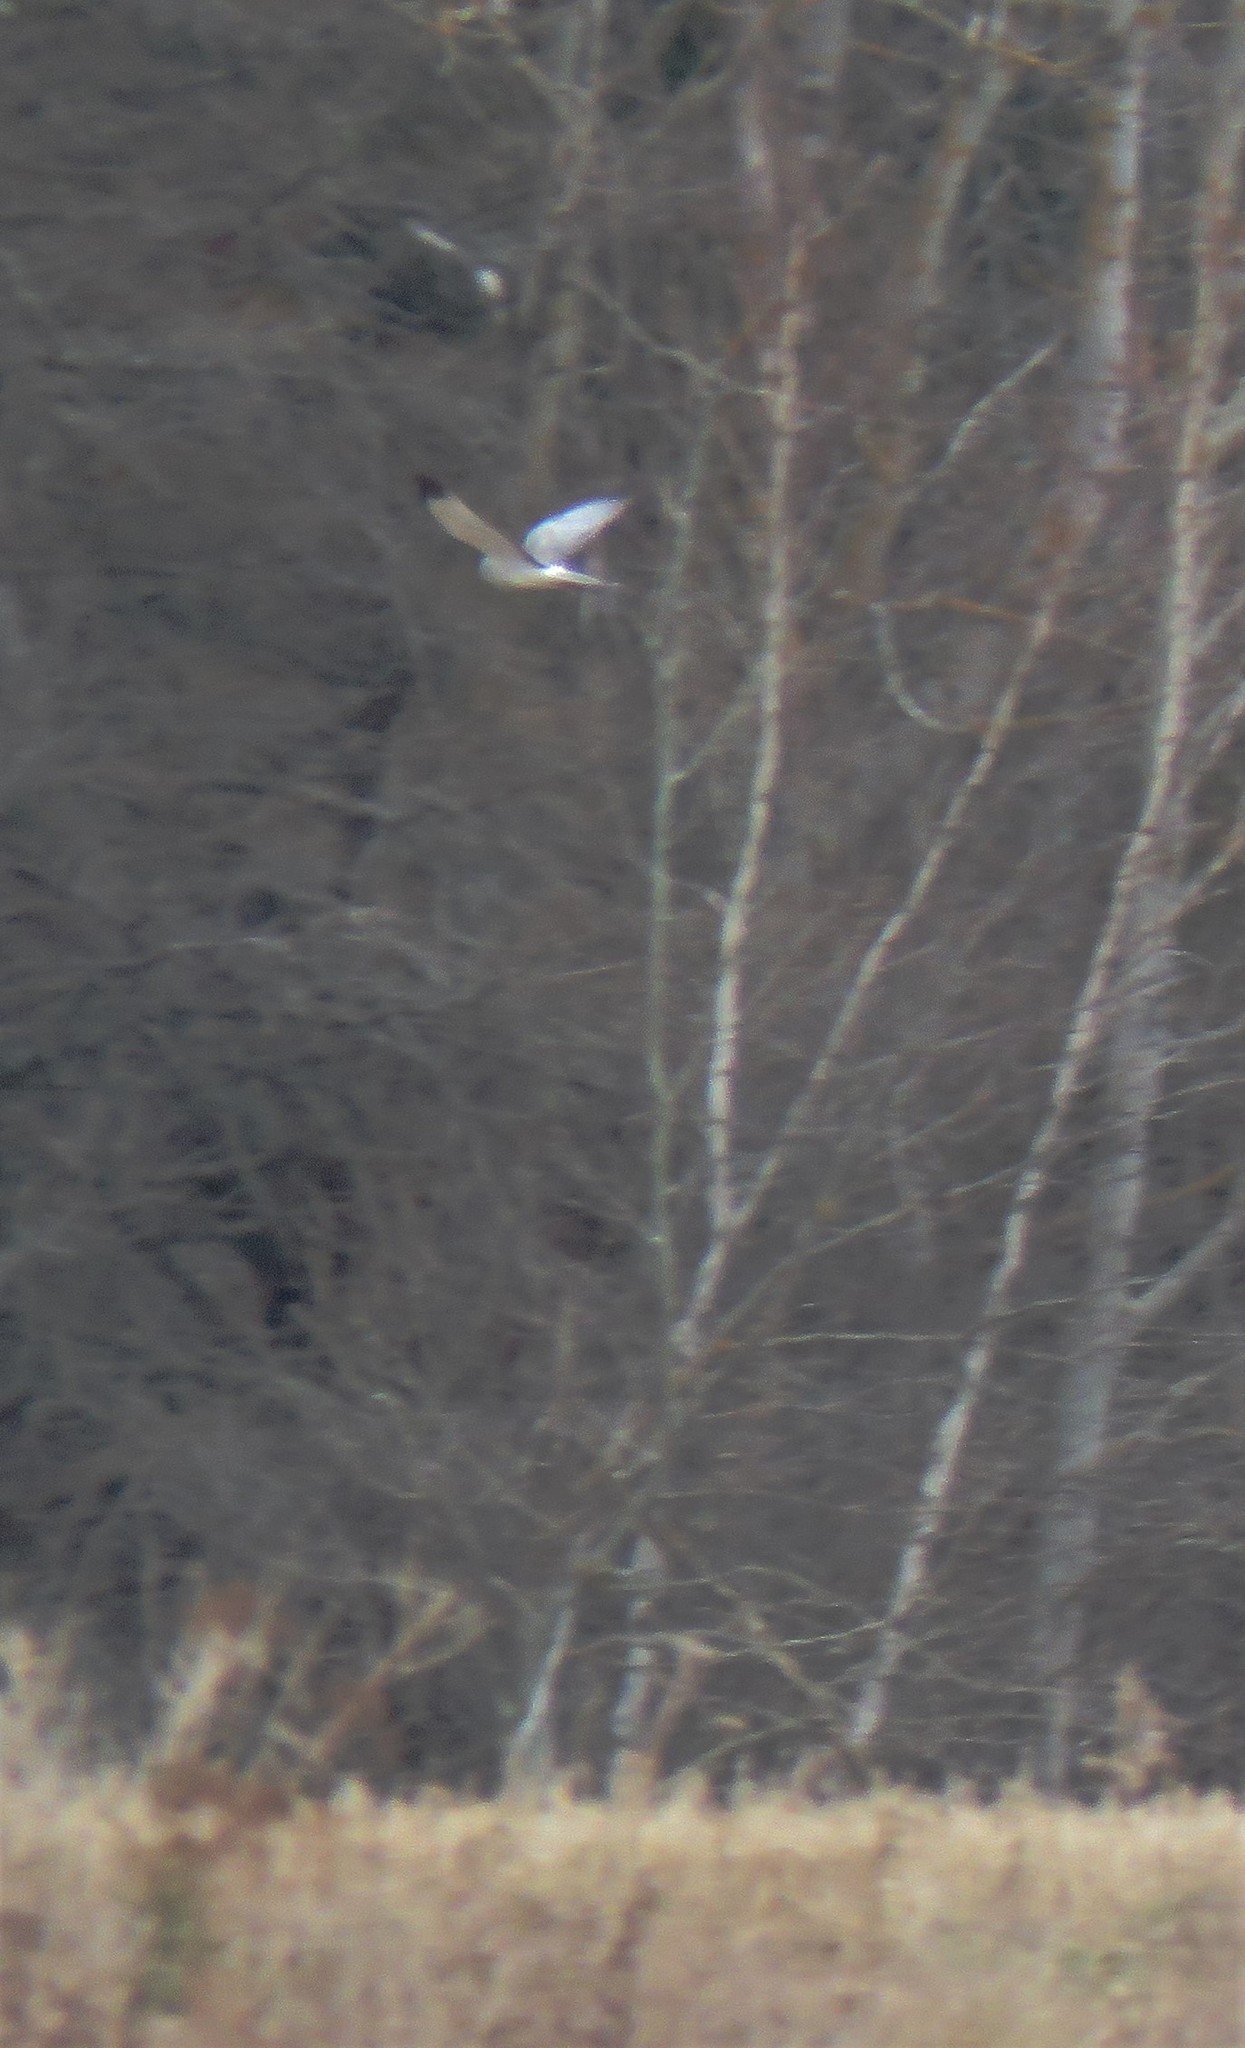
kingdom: Animalia
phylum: Chordata
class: Aves
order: Accipitriformes
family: Accipitridae
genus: Circus
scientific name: Circus cyaneus
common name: Hen harrier
